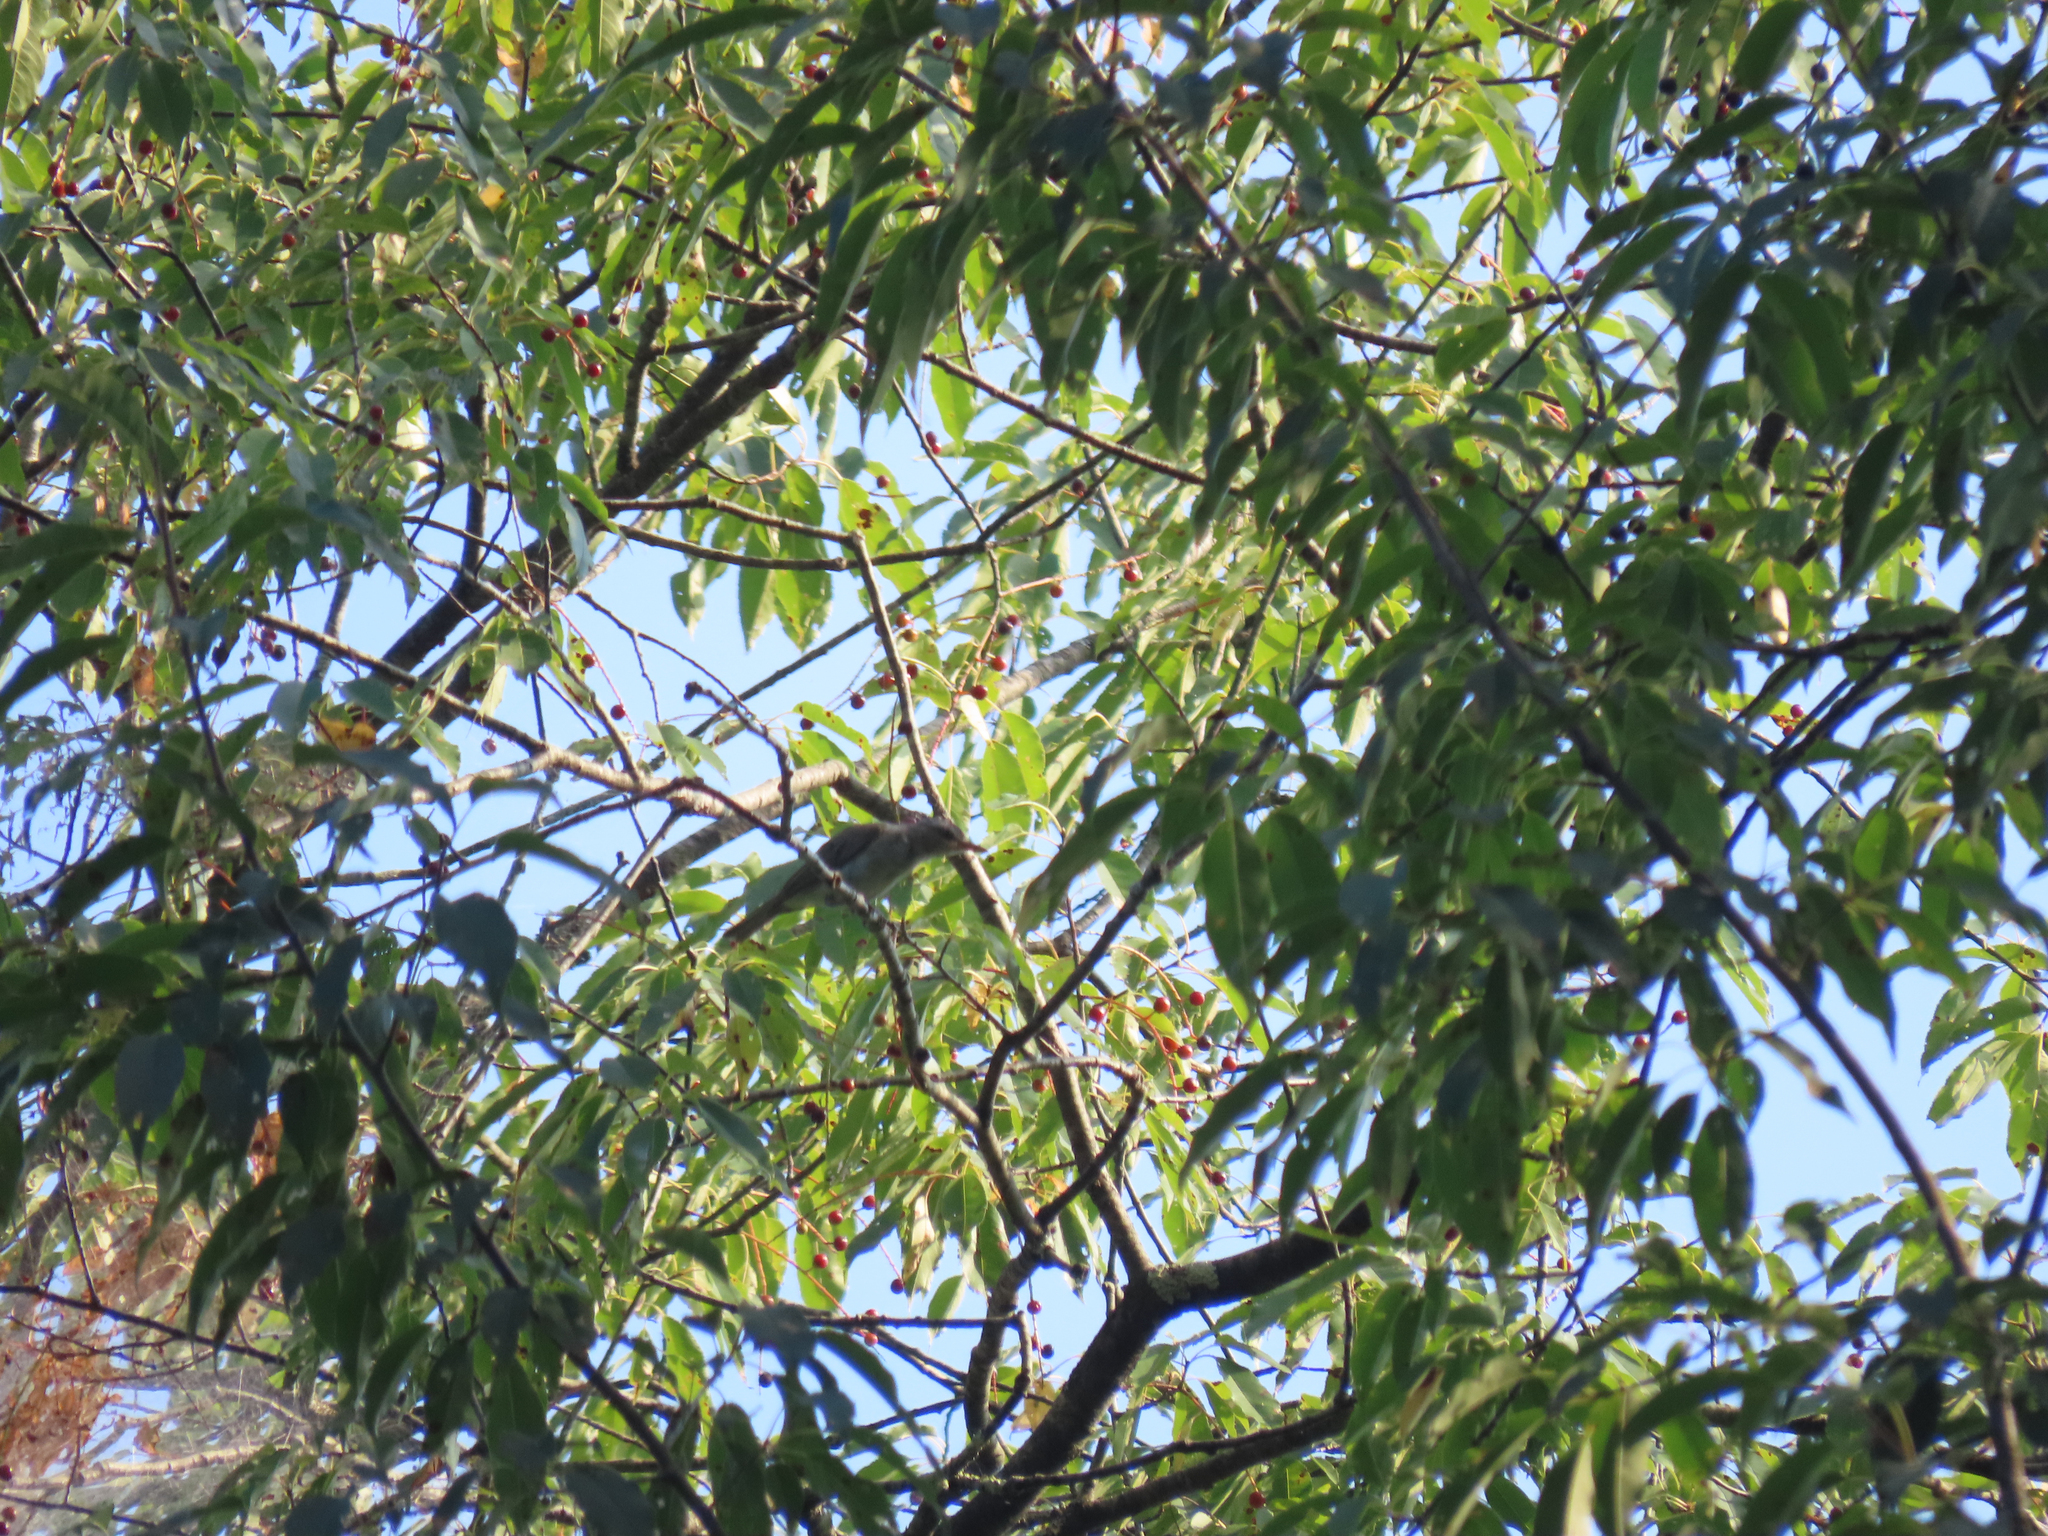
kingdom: Animalia
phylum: Chordata
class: Aves
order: Passeriformes
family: Vireonidae
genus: Vireo
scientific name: Vireo olivaceus
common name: Red-eyed vireo
